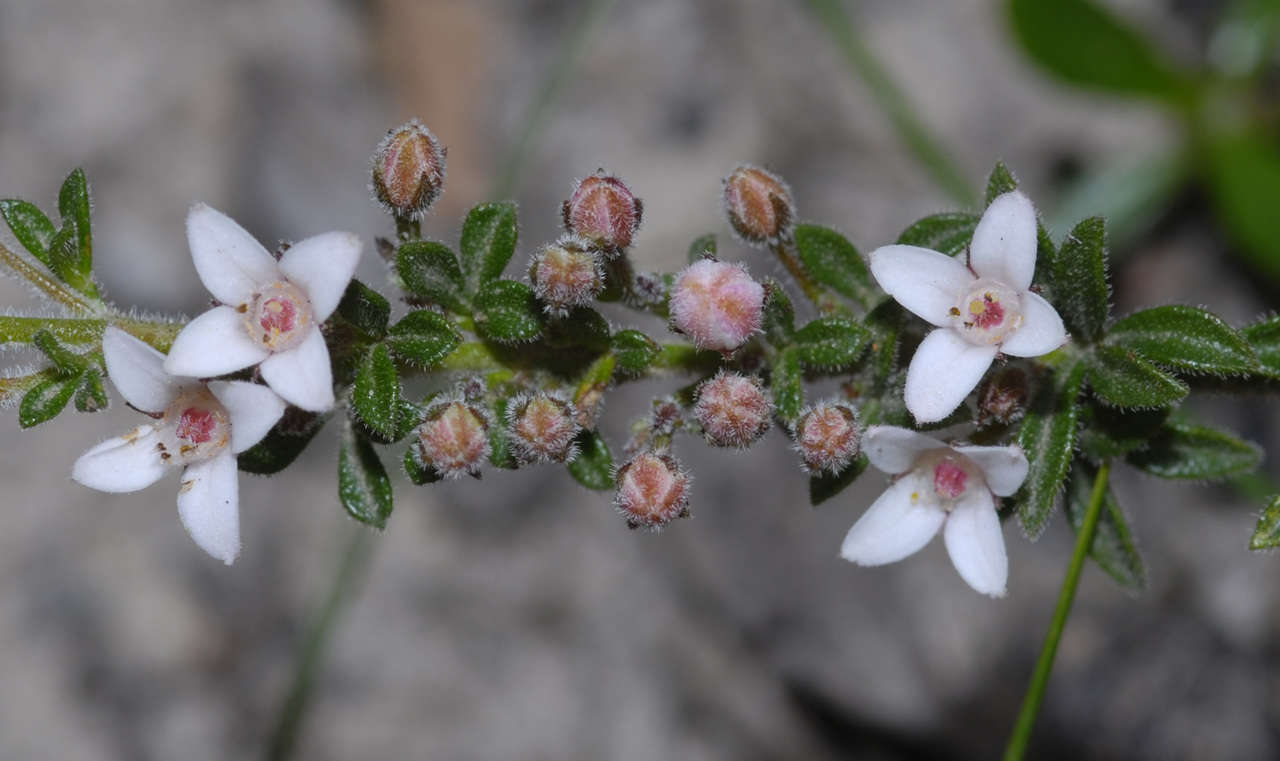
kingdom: Plantae
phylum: Tracheophyta
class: Magnoliopsida
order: Sapindales
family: Rutaceae
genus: Cyanothamnus
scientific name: Cyanothamnus nanus
